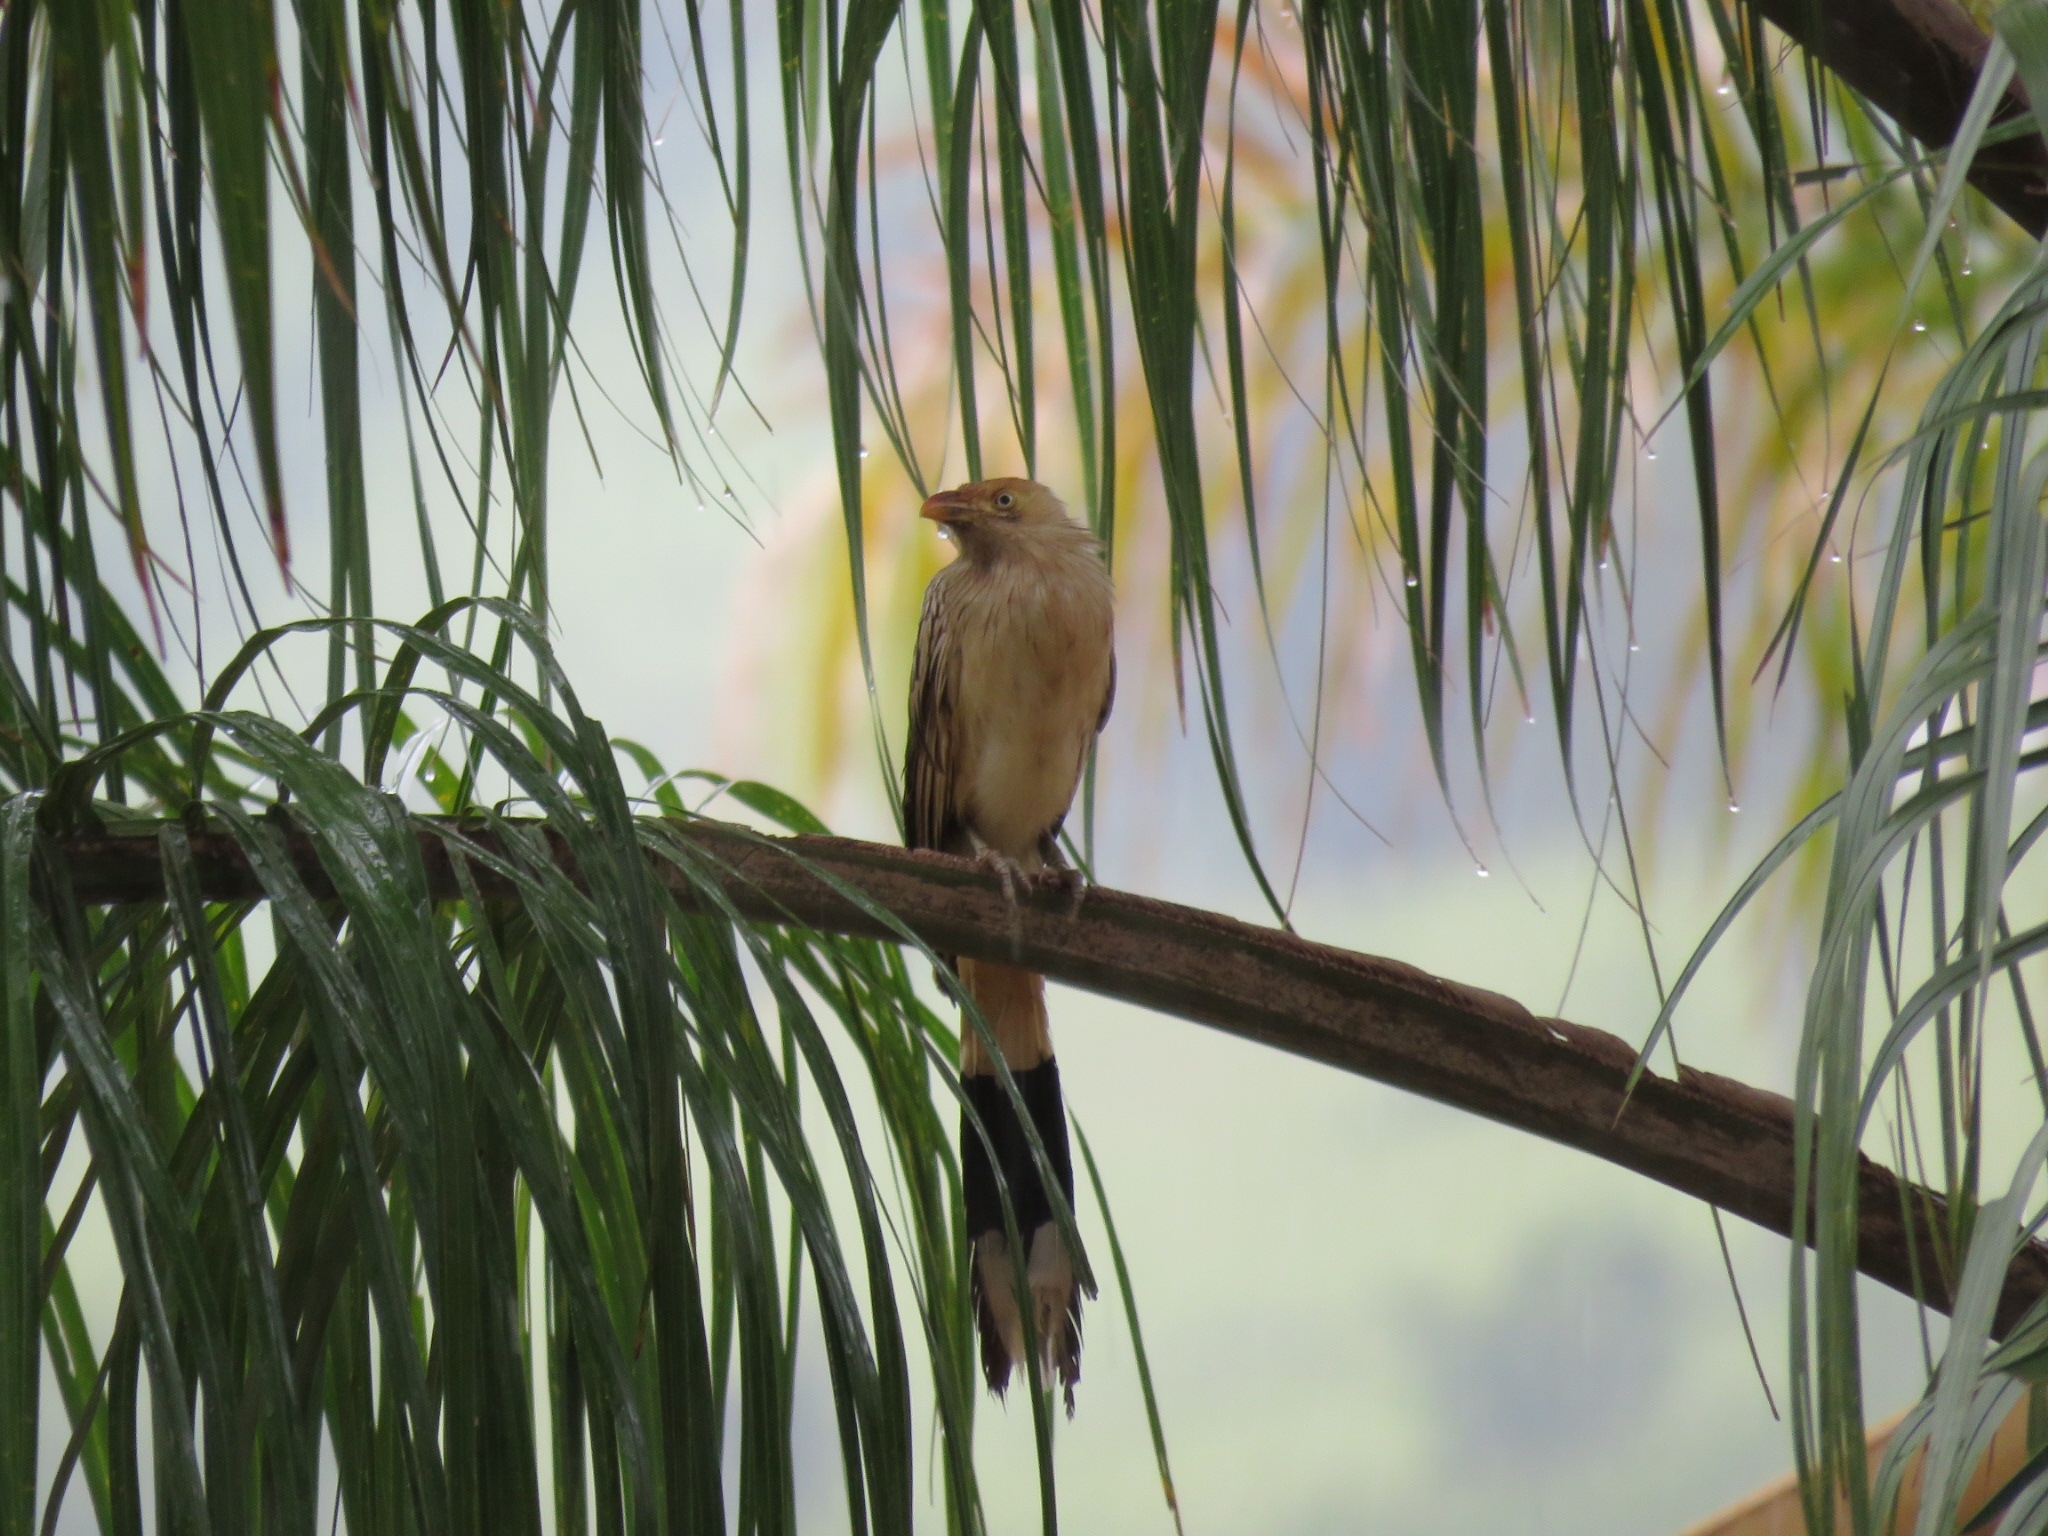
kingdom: Animalia
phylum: Chordata
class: Aves
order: Cuculiformes
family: Cuculidae
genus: Guira
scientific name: Guira guira
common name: Guira cuckoo
